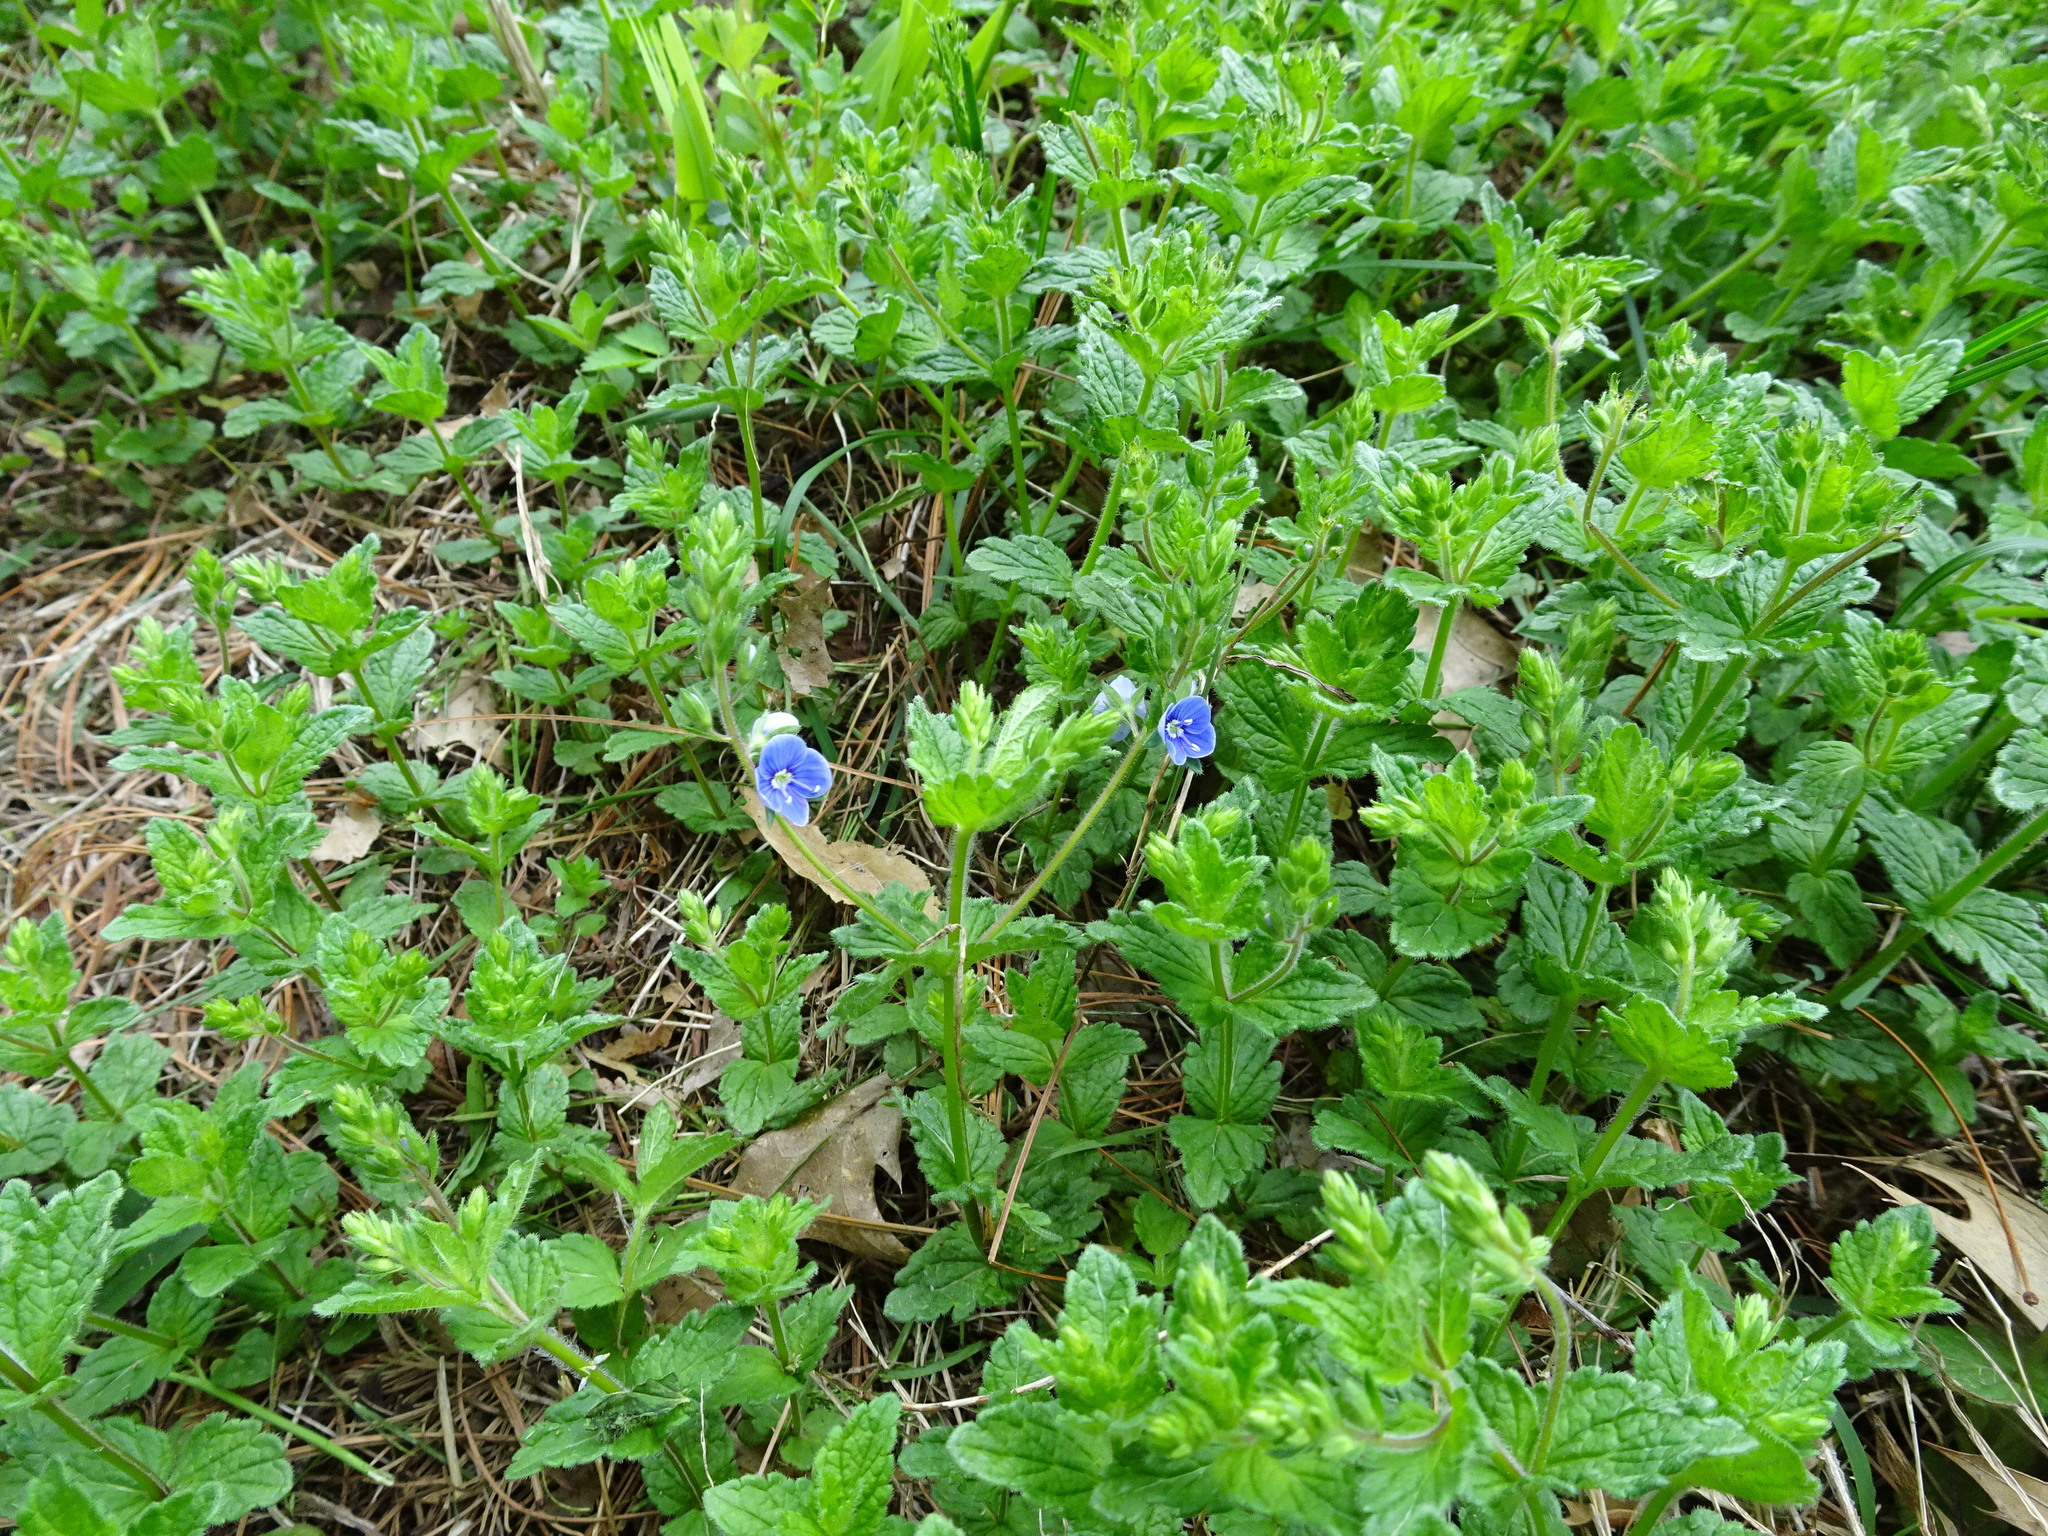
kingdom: Plantae
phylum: Tracheophyta
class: Magnoliopsida
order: Lamiales
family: Plantaginaceae
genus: Veronica
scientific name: Veronica chamaedrys
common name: Germander speedwell
